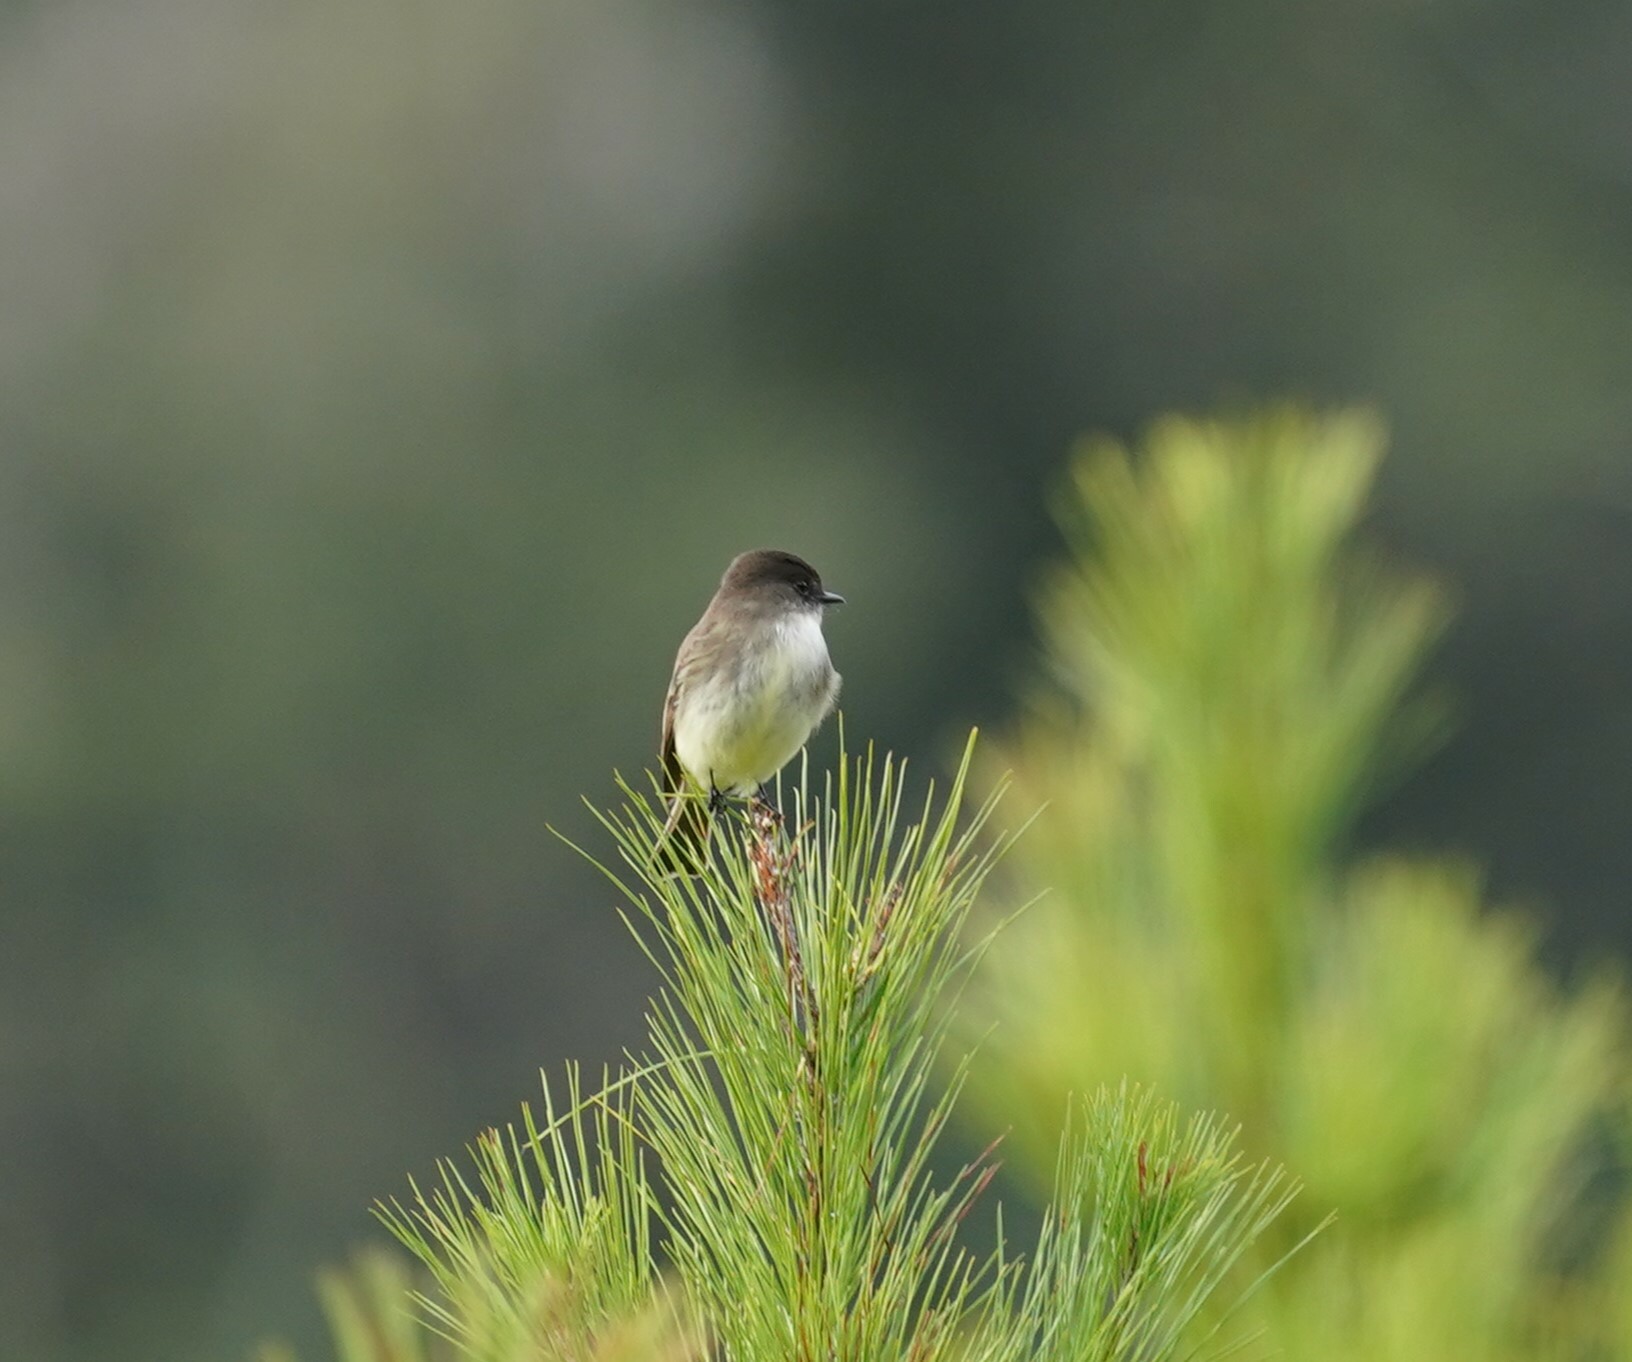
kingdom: Animalia
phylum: Chordata
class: Aves
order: Passeriformes
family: Tyrannidae
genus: Sayornis
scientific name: Sayornis phoebe
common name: Eastern phoebe
